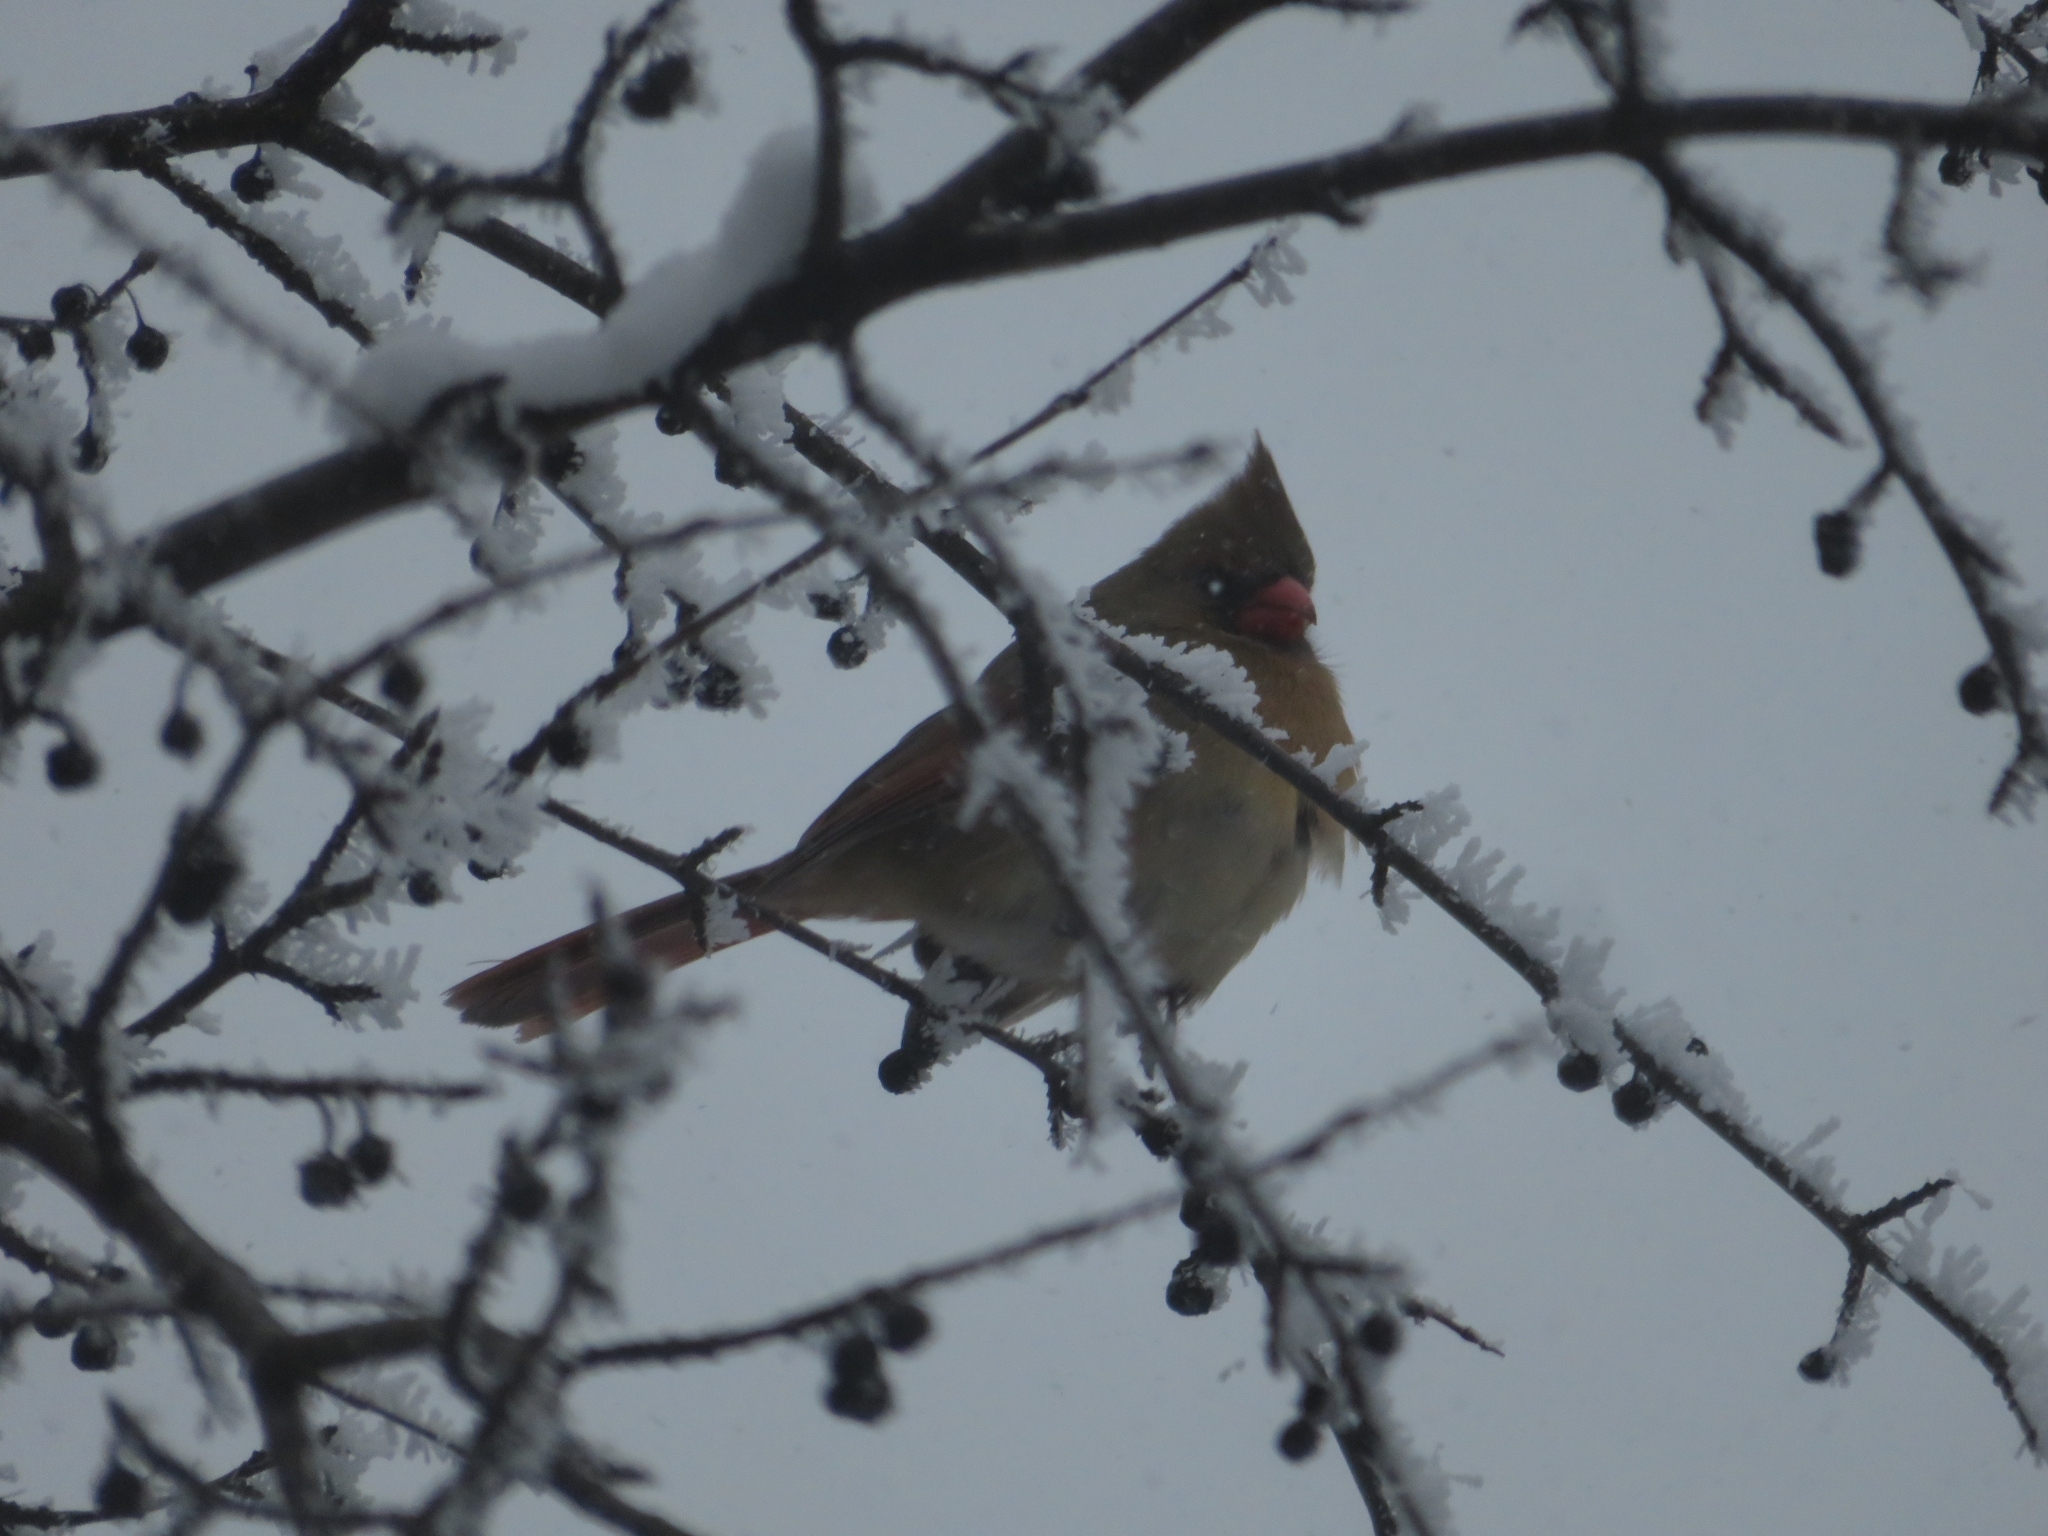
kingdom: Animalia
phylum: Chordata
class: Aves
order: Passeriformes
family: Cardinalidae
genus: Cardinalis
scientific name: Cardinalis cardinalis
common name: Northern cardinal
